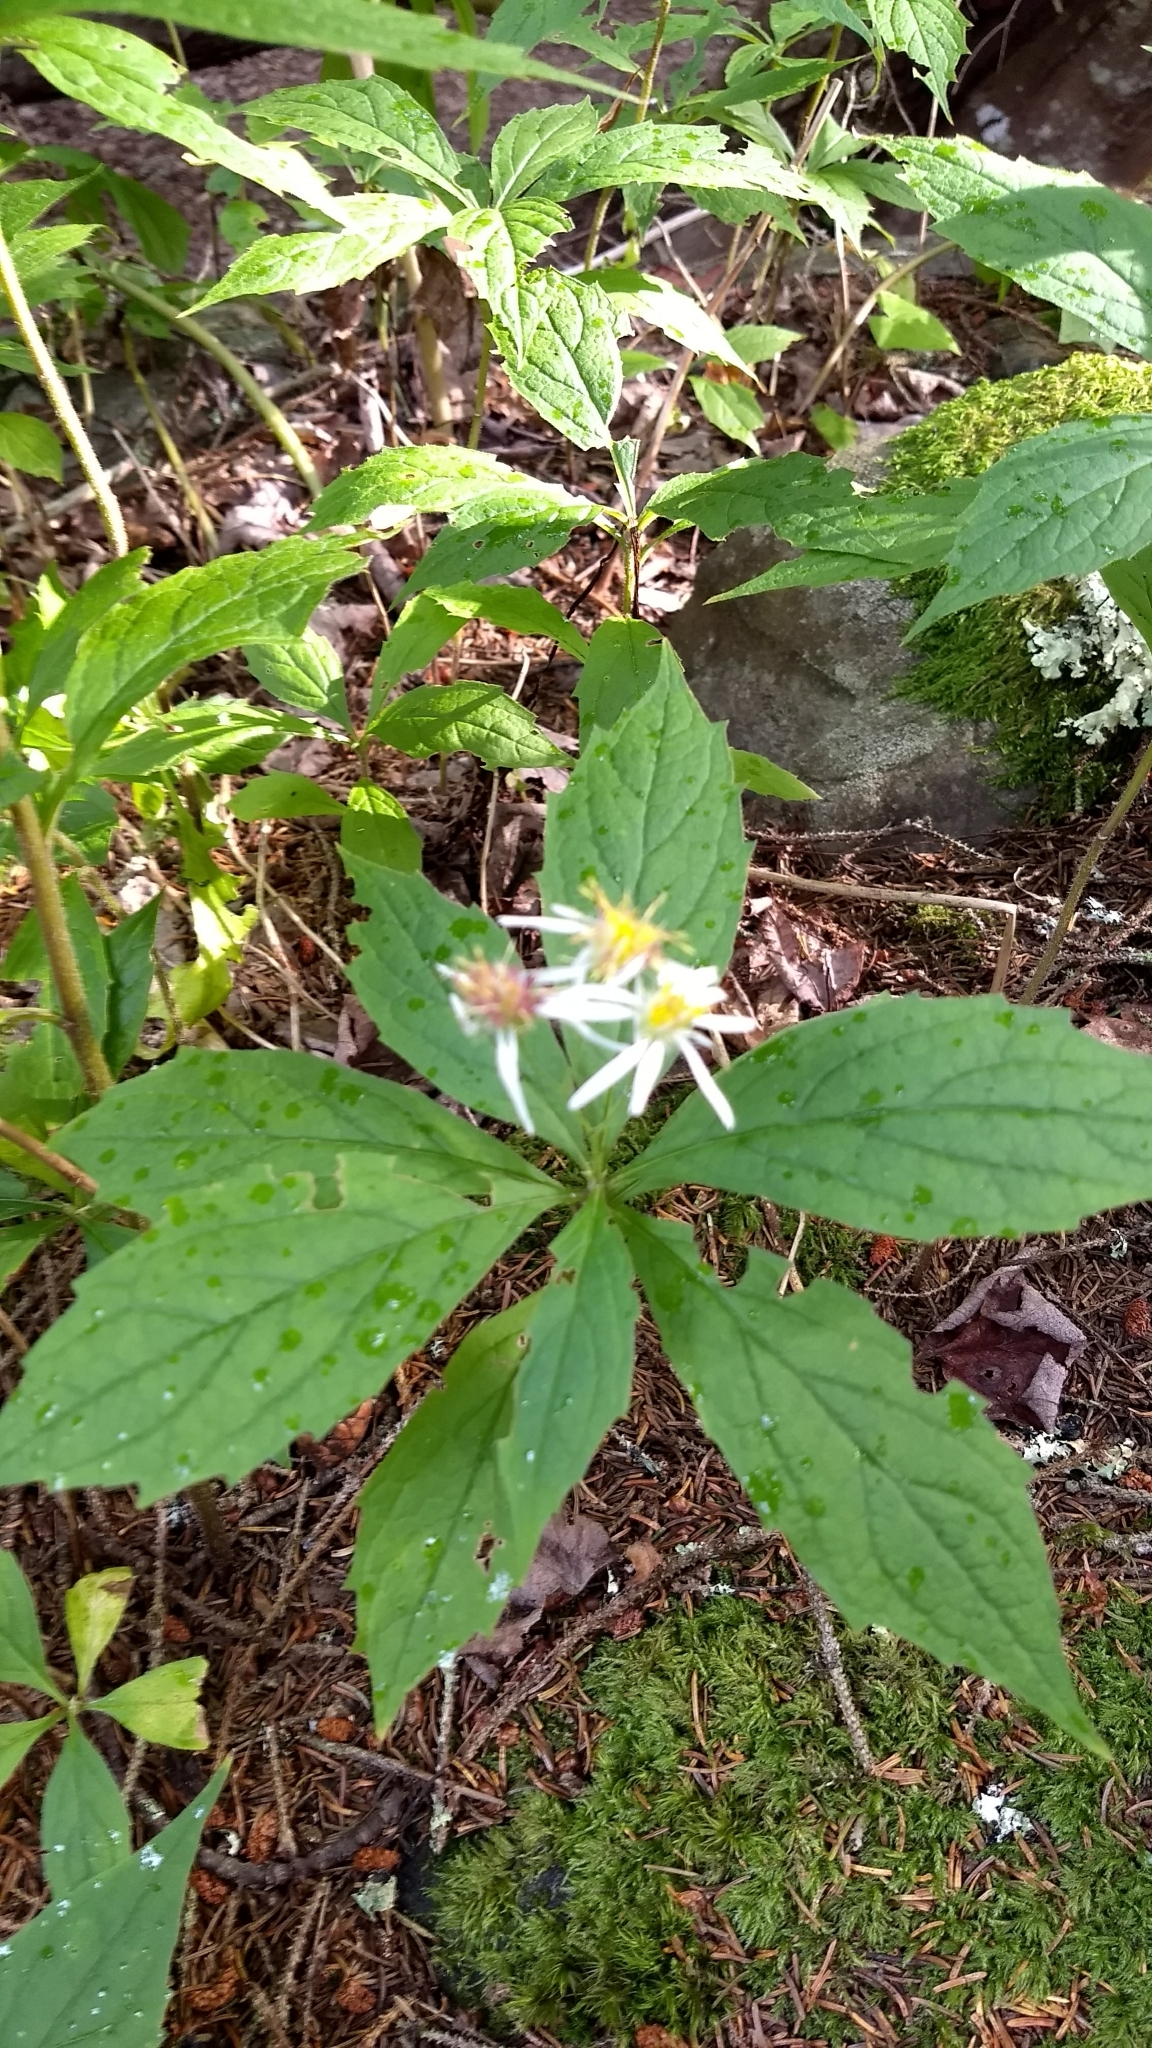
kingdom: Plantae
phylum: Tracheophyta
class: Magnoliopsida
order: Asterales
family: Asteraceae
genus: Oclemena
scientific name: Oclemena acuminata
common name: Mountain aster
